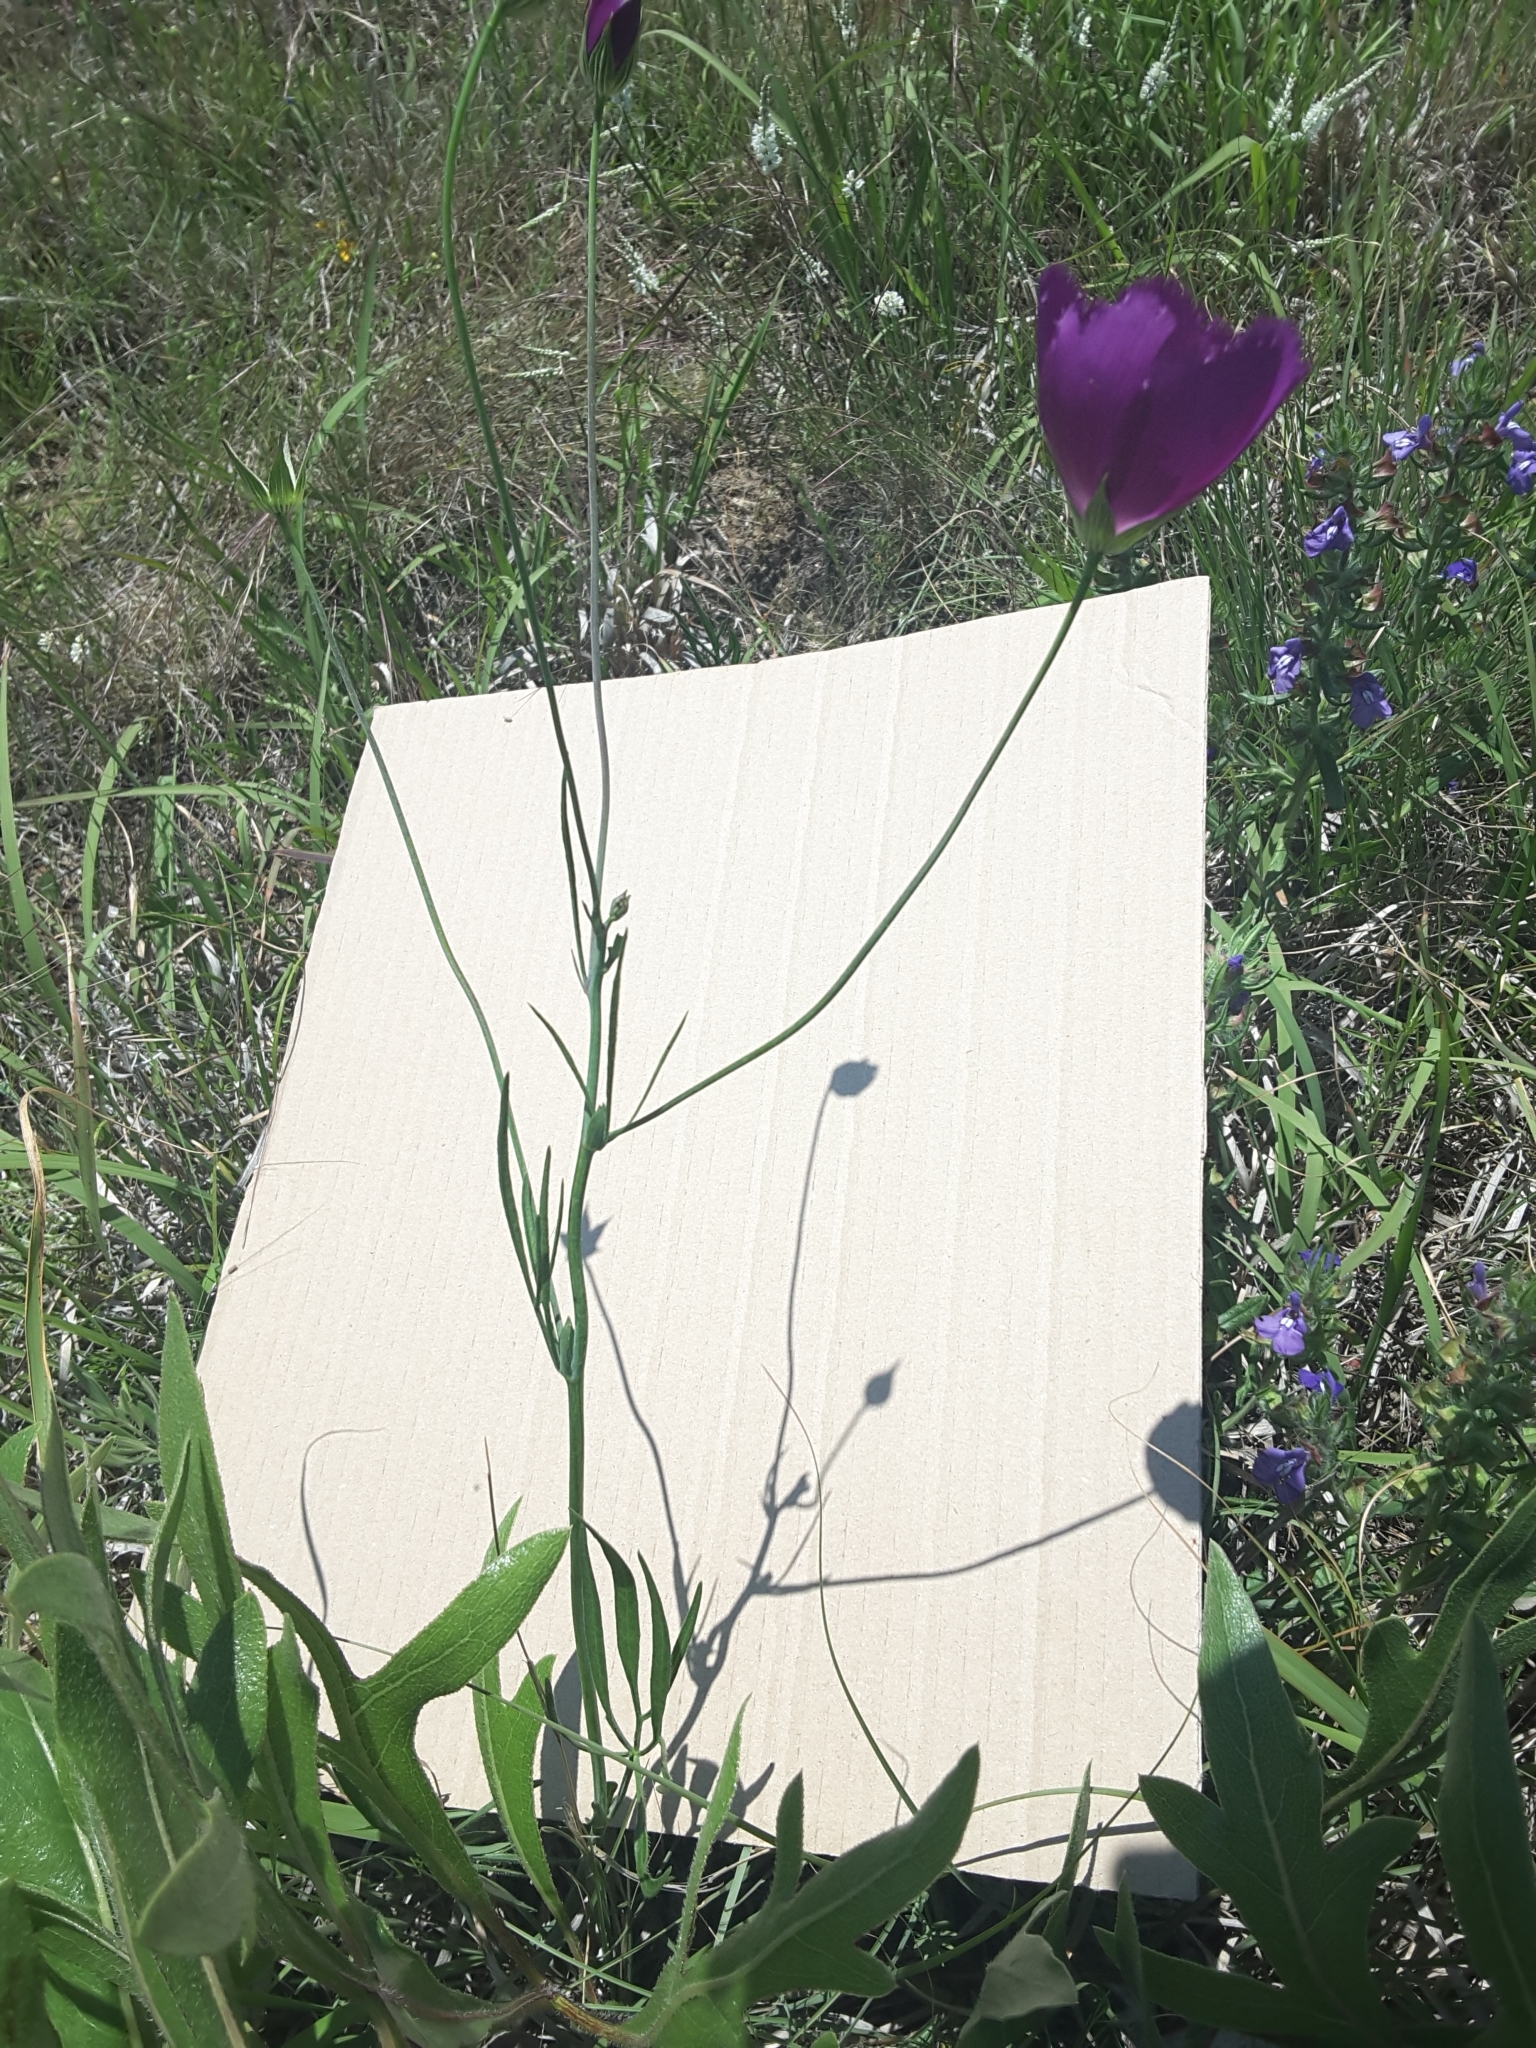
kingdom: Plantae
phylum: Tracheophyta
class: Magnoliopsida
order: Malvales
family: Malvaceae
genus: Callirhoe
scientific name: Callirhoe pedata
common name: Finger poppy-mallow
